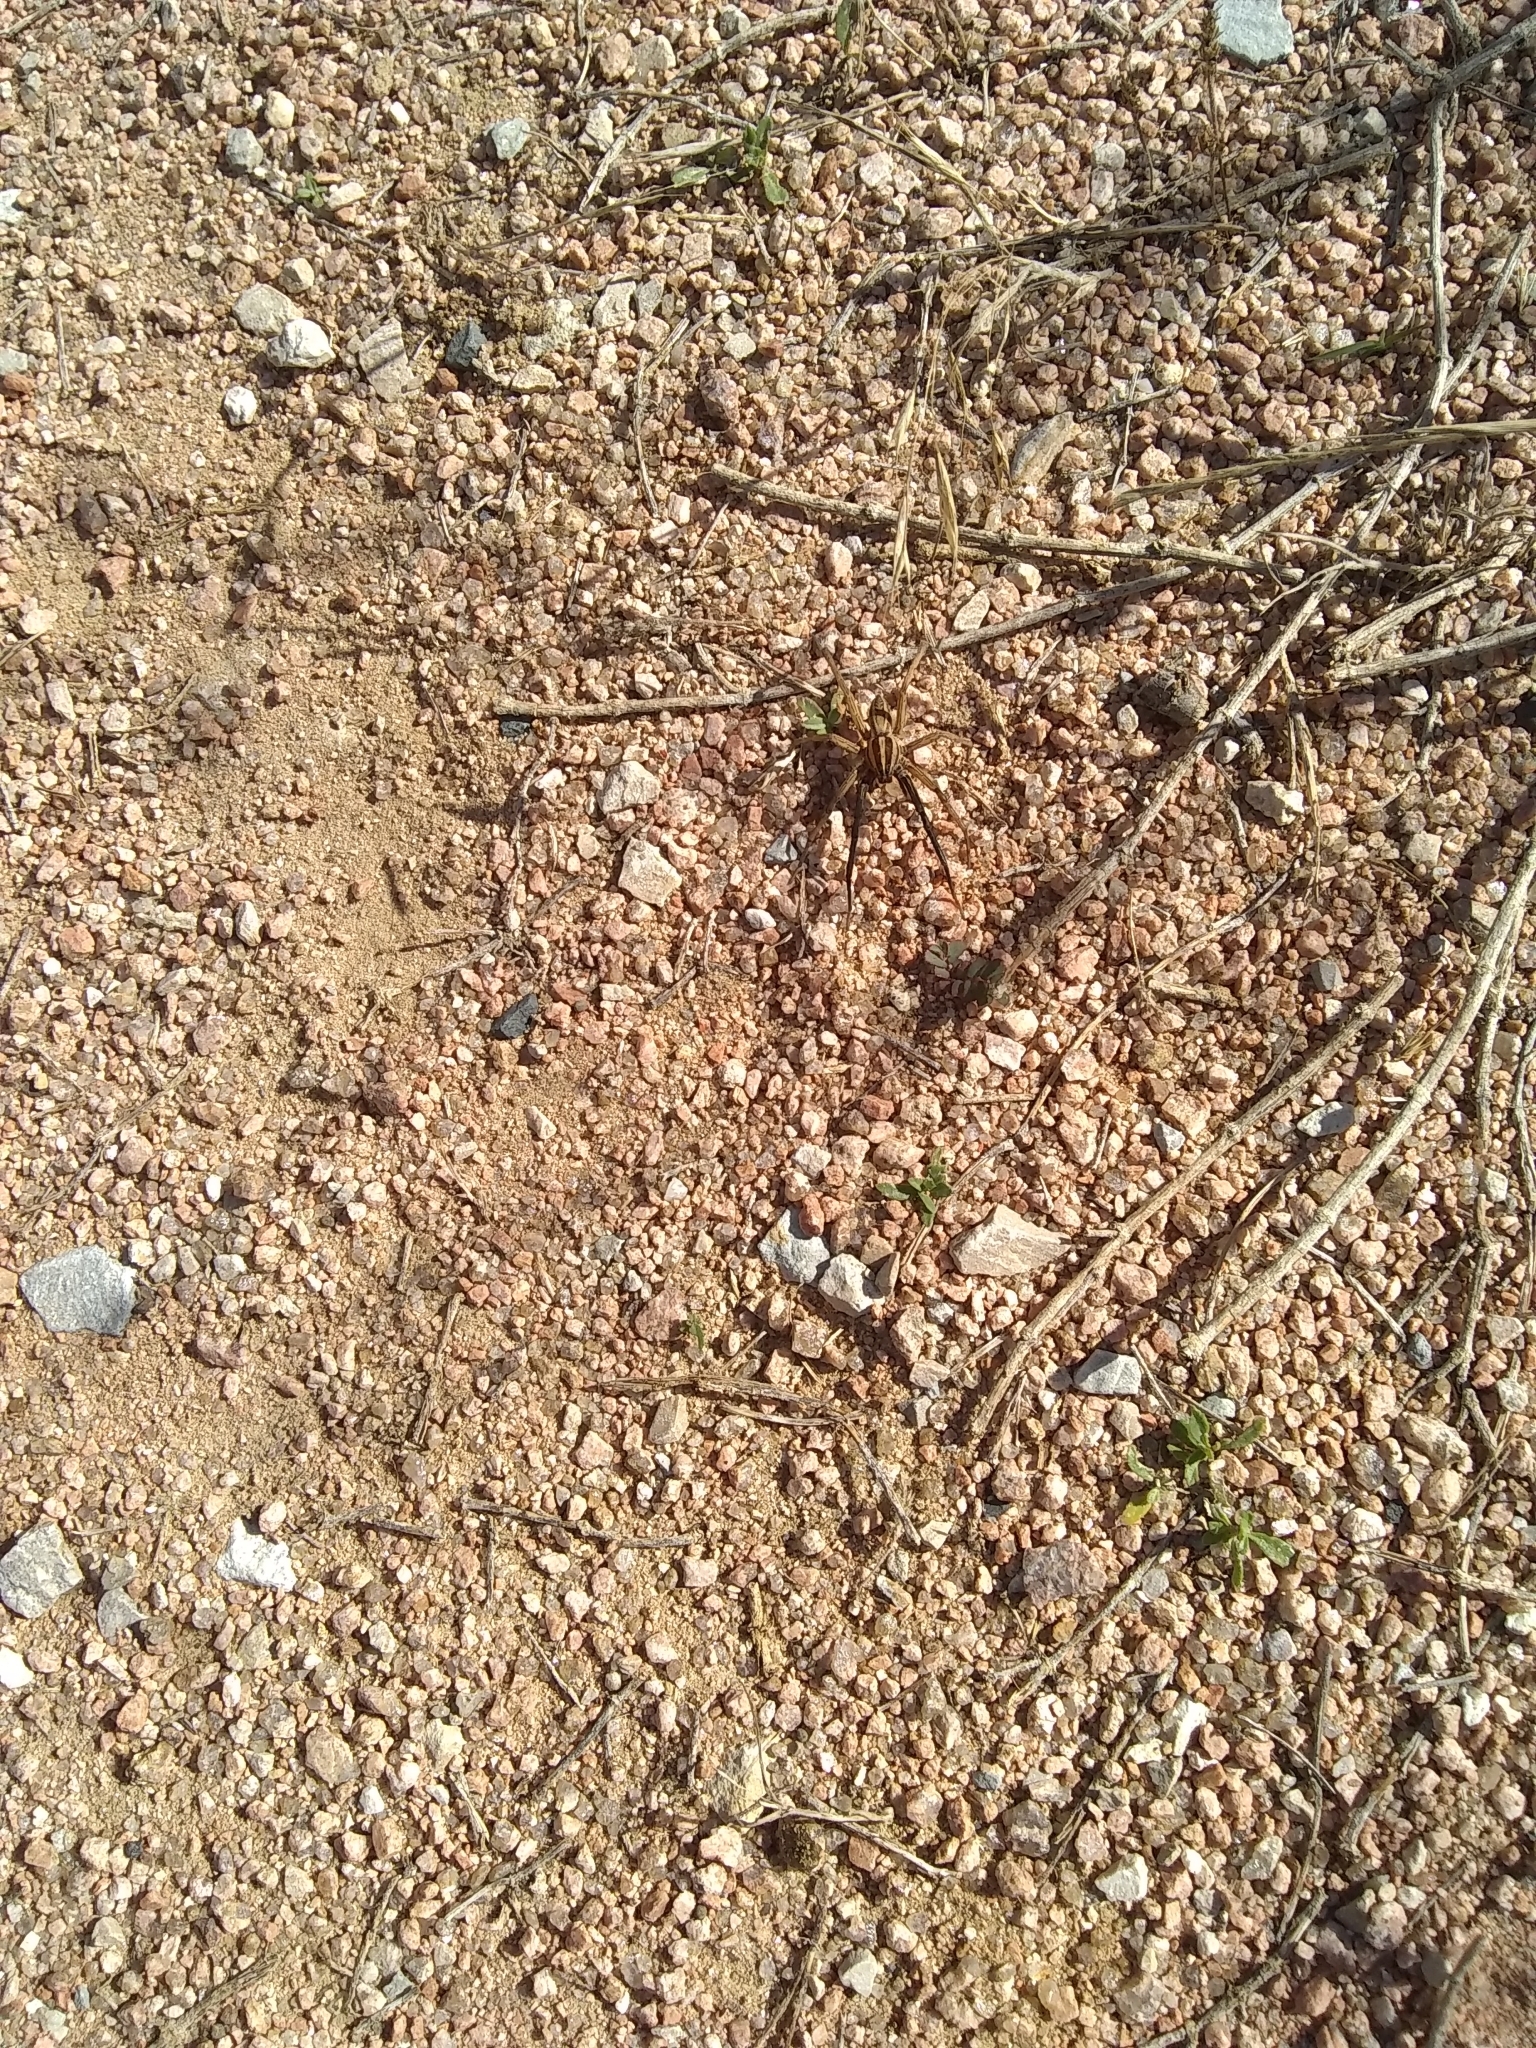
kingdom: Animalia
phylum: Arthropoda
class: Arachnida
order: Araneae
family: Lycosidae
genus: Rabidosa
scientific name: Rabidosa rabida
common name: Rabid wolf spider
